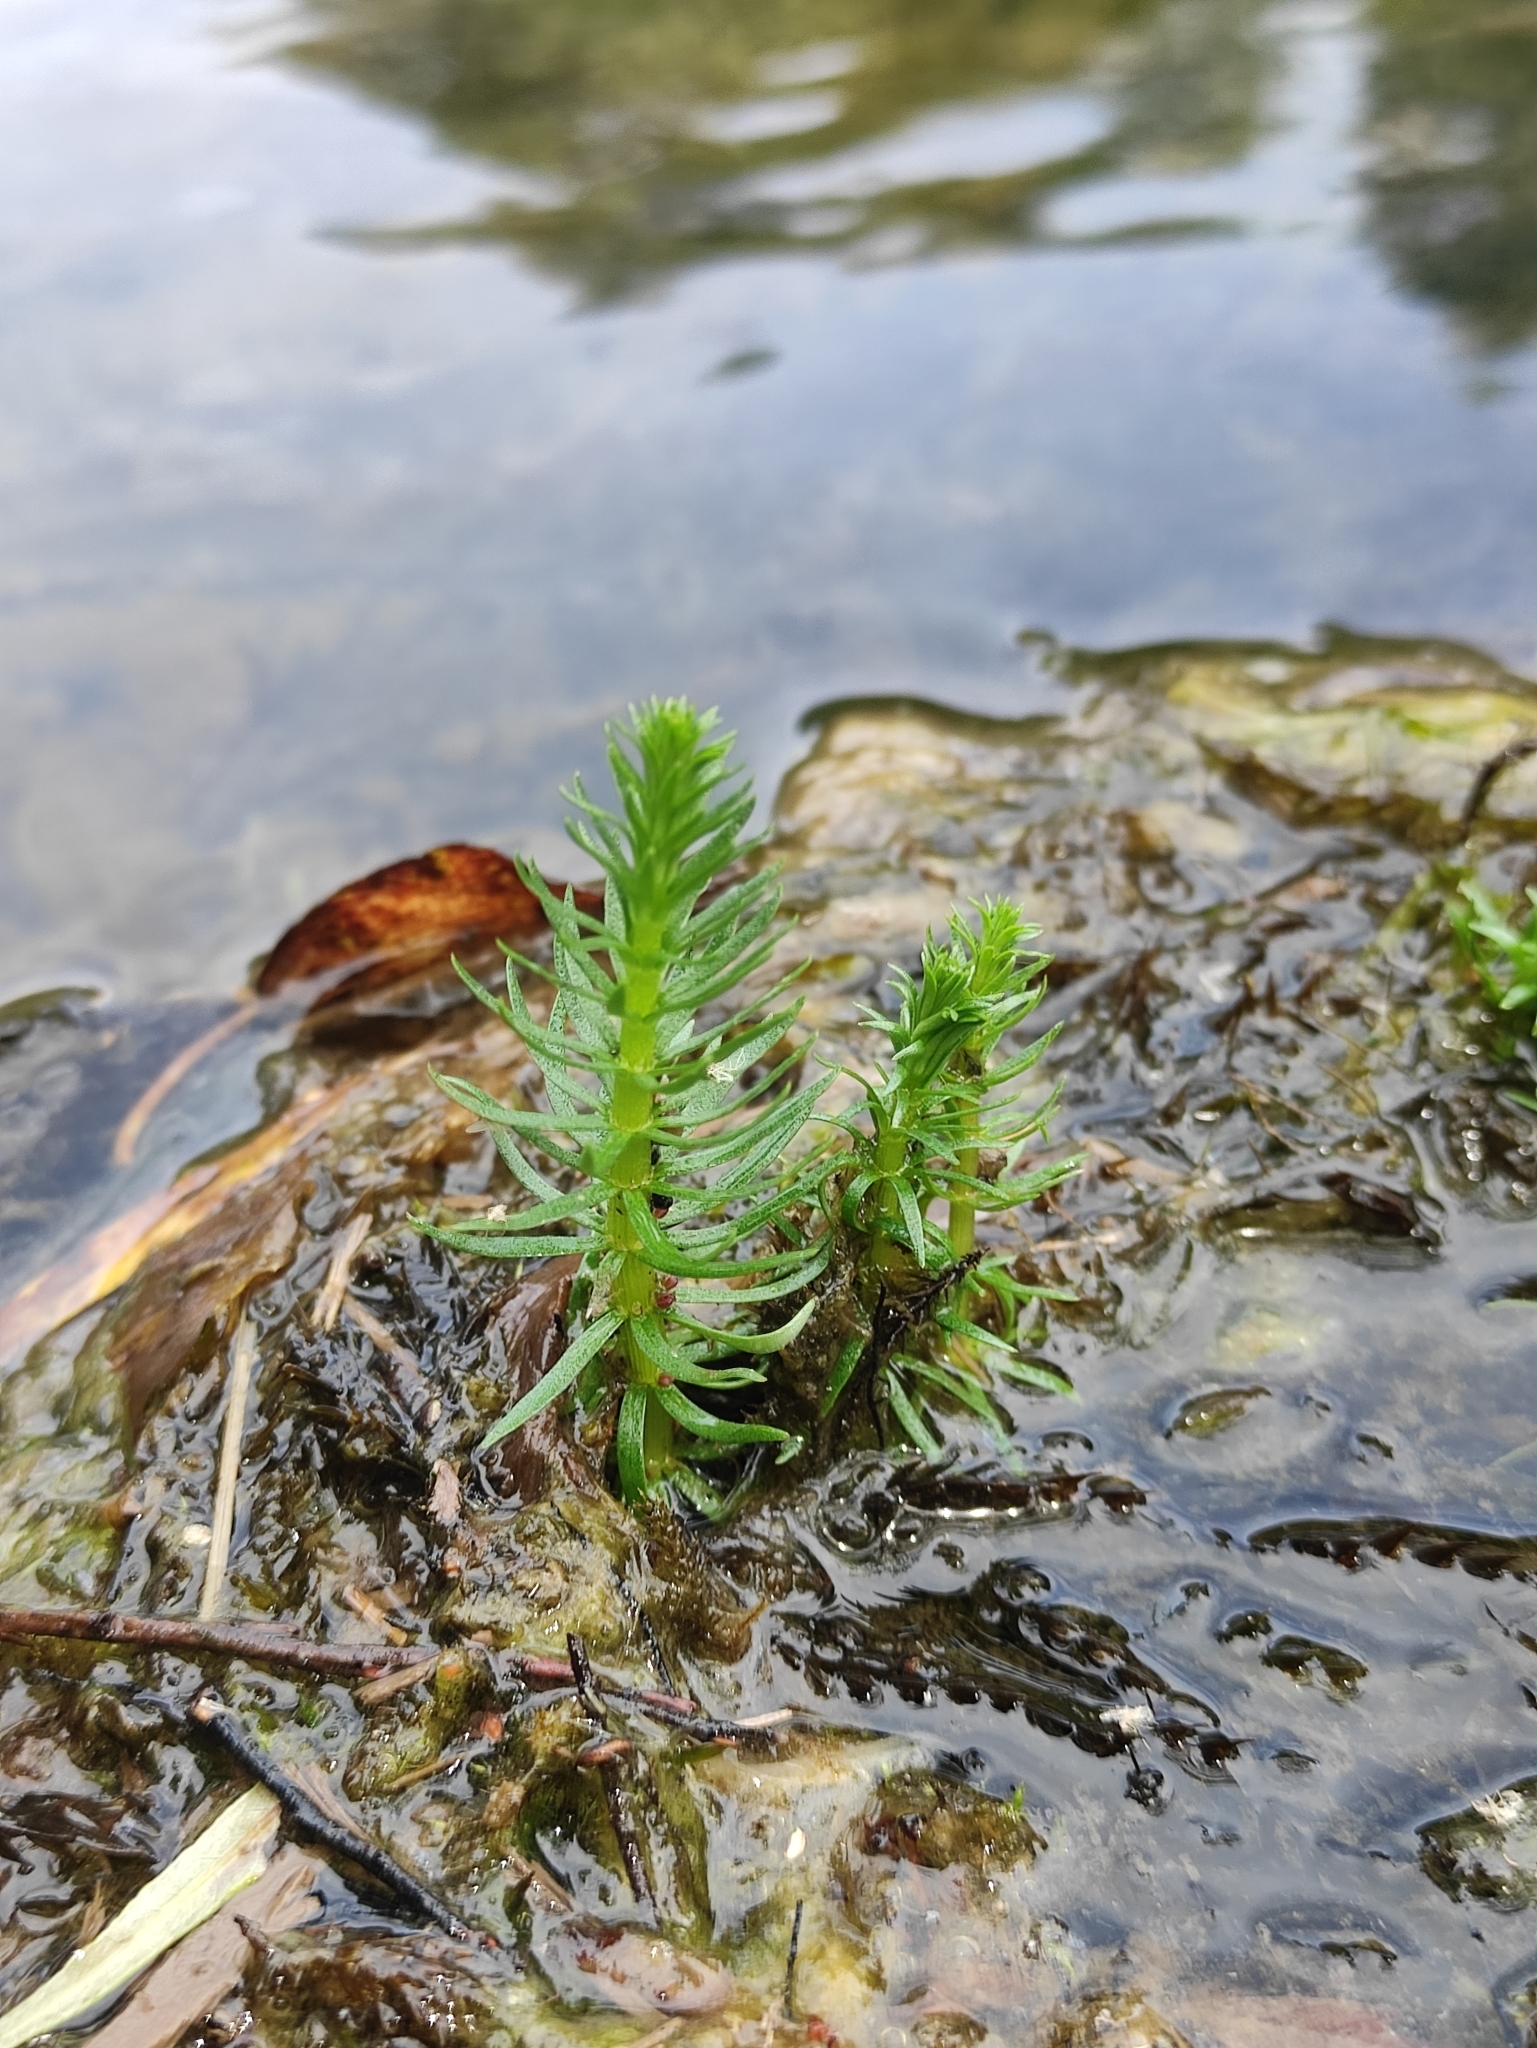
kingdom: Plantae
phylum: Tracheophyta
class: Magnoliopsida
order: Lamiales
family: Plantaginaceae
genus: Hippuris
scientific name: Hippuris vulgaris
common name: Mare's-tail
